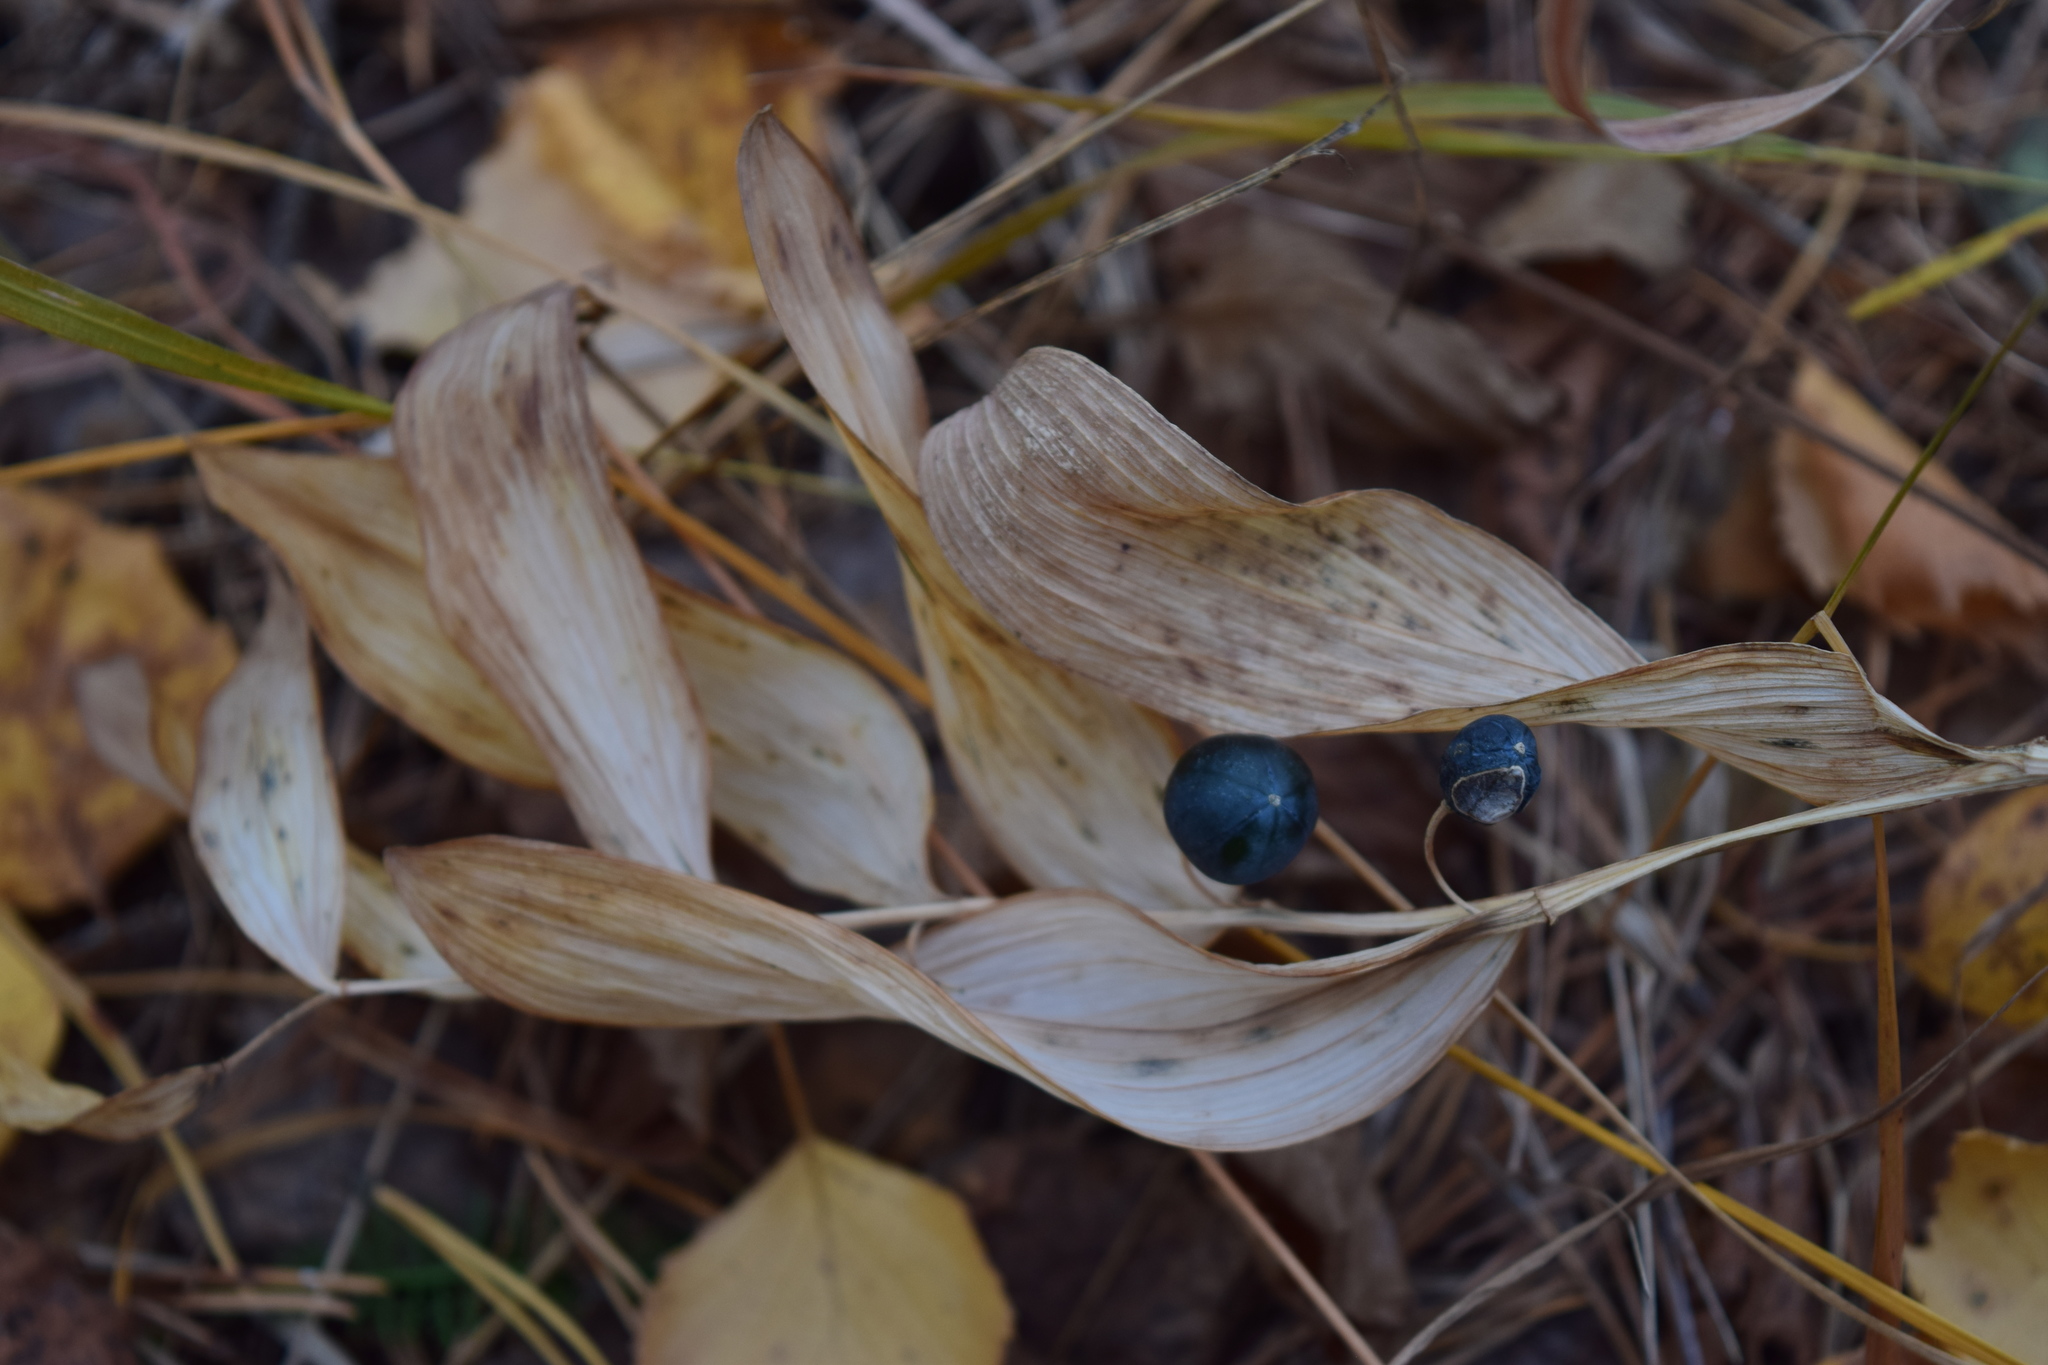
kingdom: Plantae
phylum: Tracheophyta
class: Liliopsida
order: Asparagales
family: Asparagaceae
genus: Polygonatum
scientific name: Polygonatum odoratum
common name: Angular solomon's-seal
